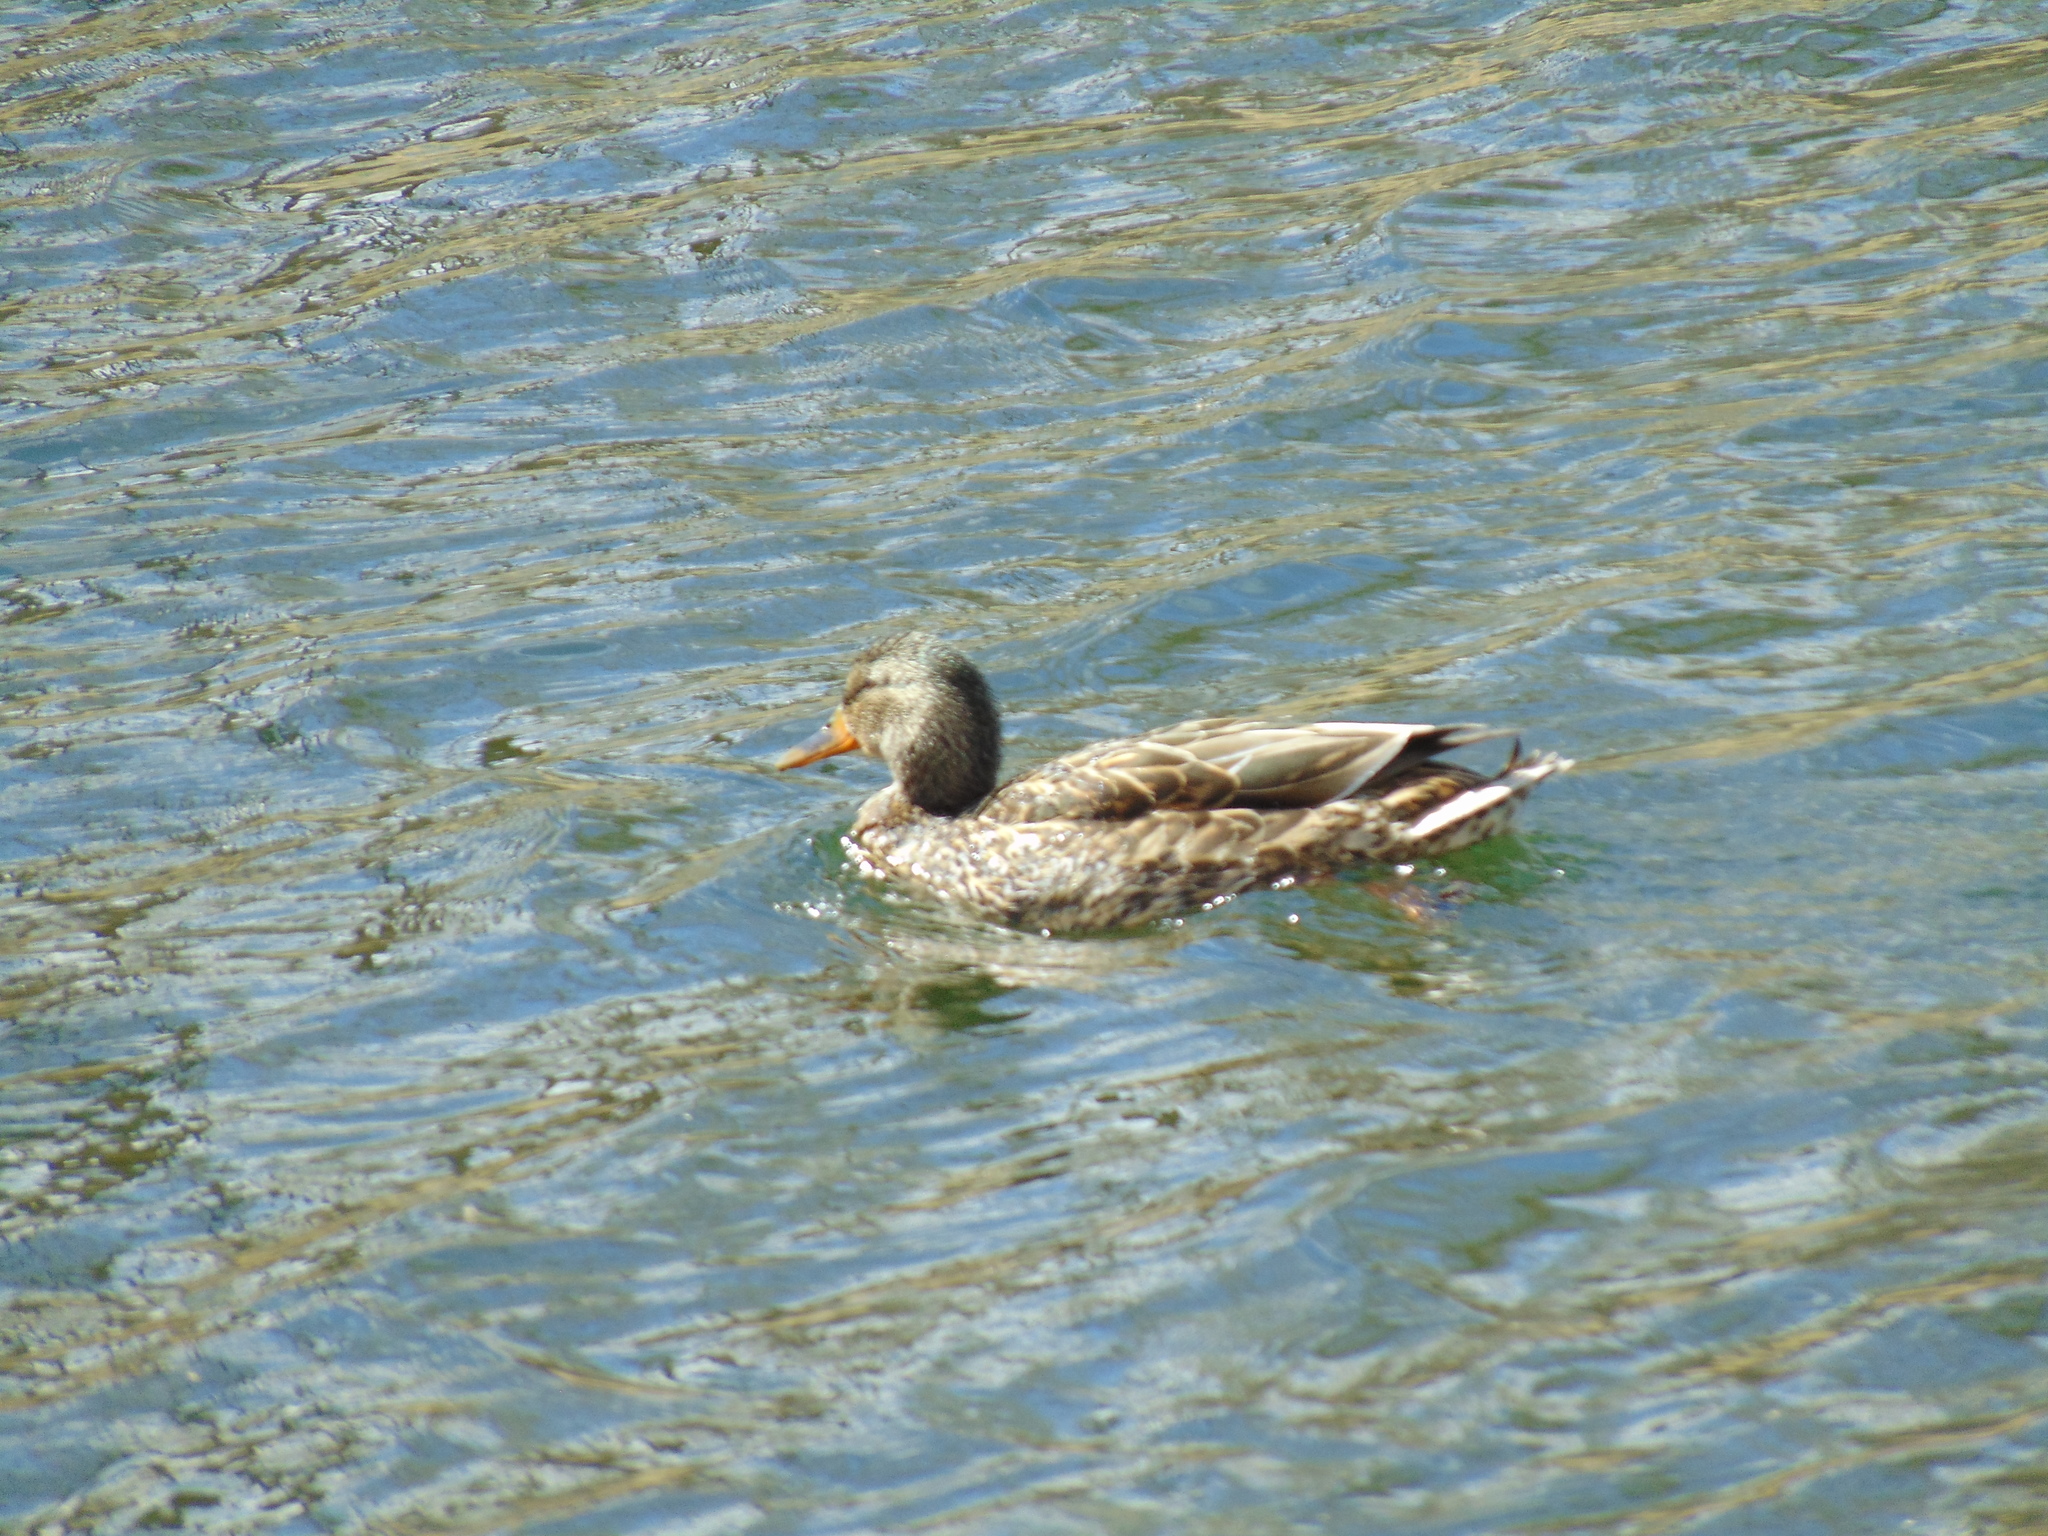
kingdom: Animalia
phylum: Chordata
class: Aves
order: Anseriformes
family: Anatidae
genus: Anas
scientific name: Anas platyrhynchos
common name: Mallard
